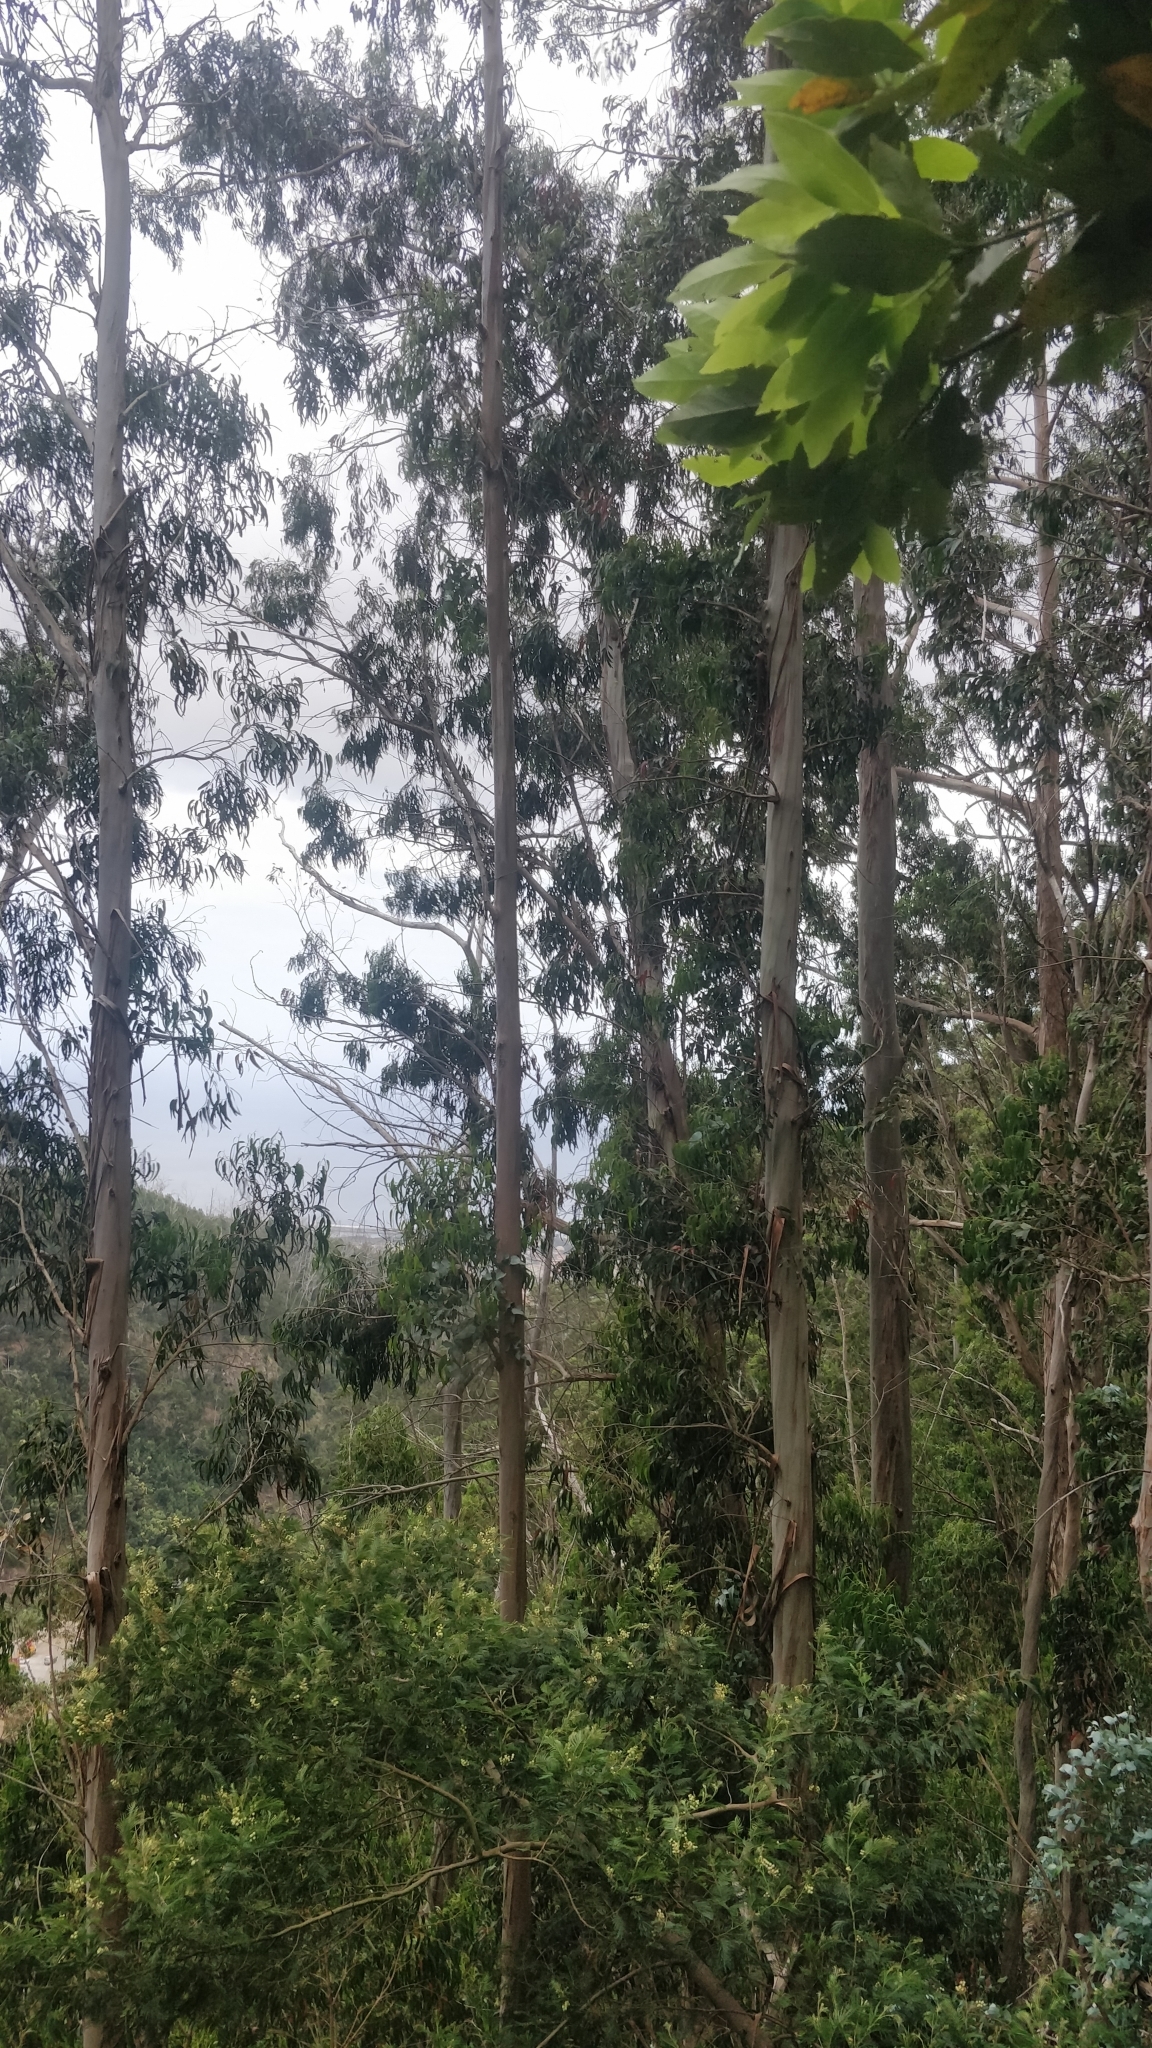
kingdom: Plantae
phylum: Tracheophyta
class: Magnoliopsida
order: Myrtales
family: Myrtaceae
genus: Eucalyptus
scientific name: Eucalyptus globulus
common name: Southern blue-gum
